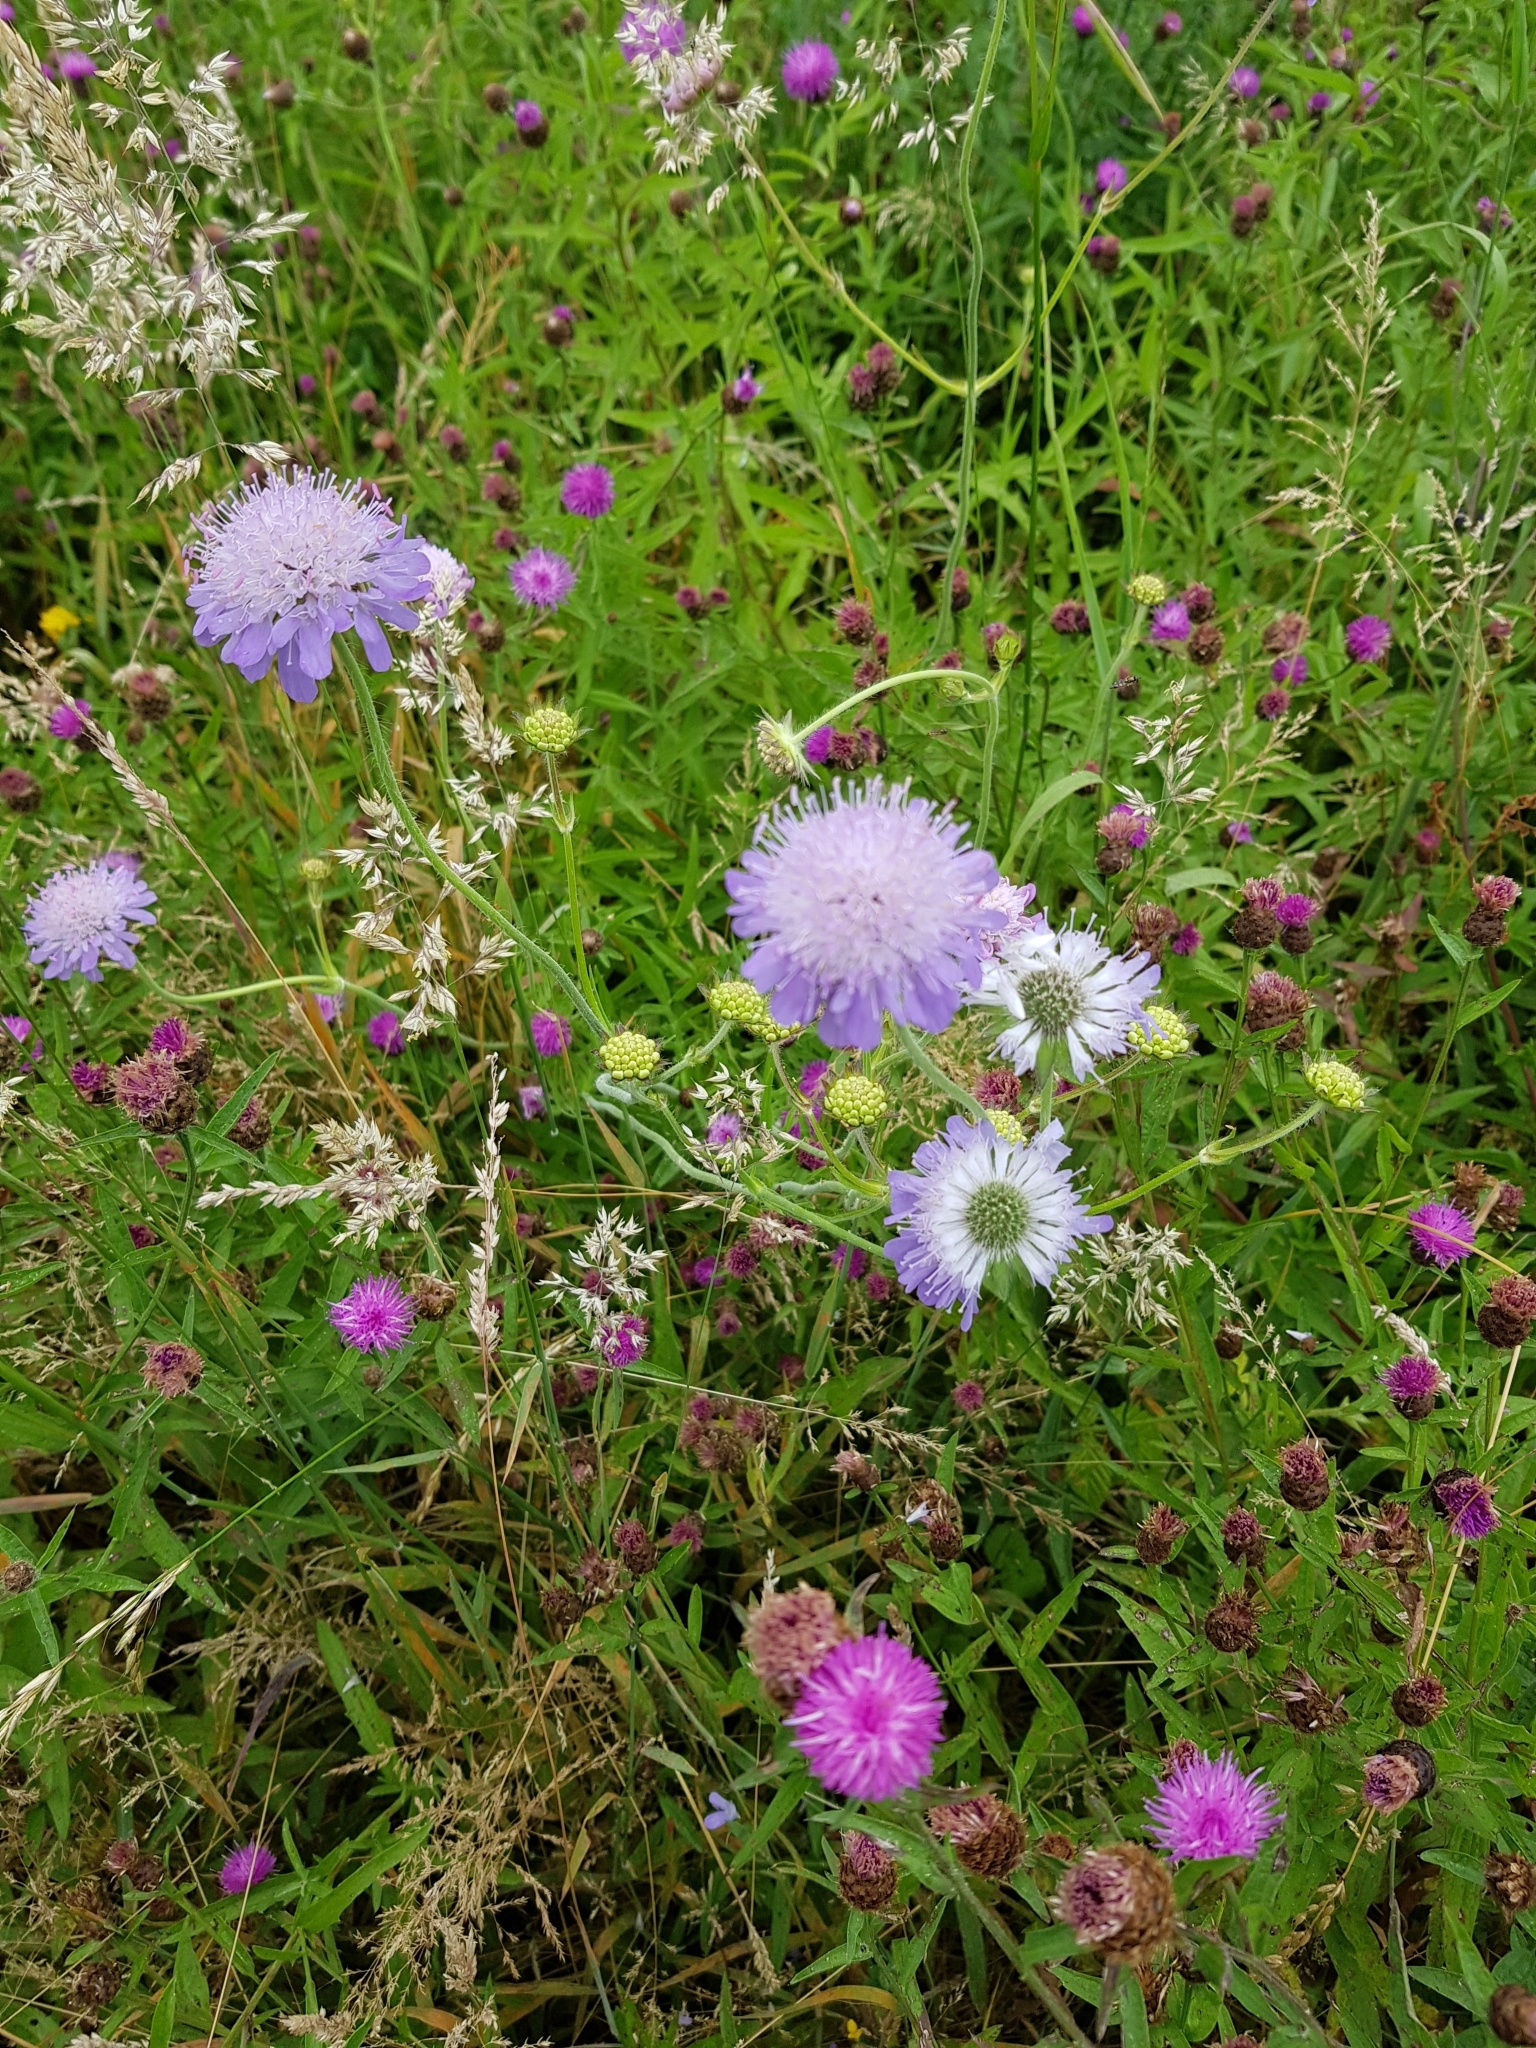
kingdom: Plantae
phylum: Tracheophyta
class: Magnoliopsida
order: Dipsacales
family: Caprifoliaceae
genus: Knautia
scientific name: Knautia arvensis
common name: Field scabiosa
